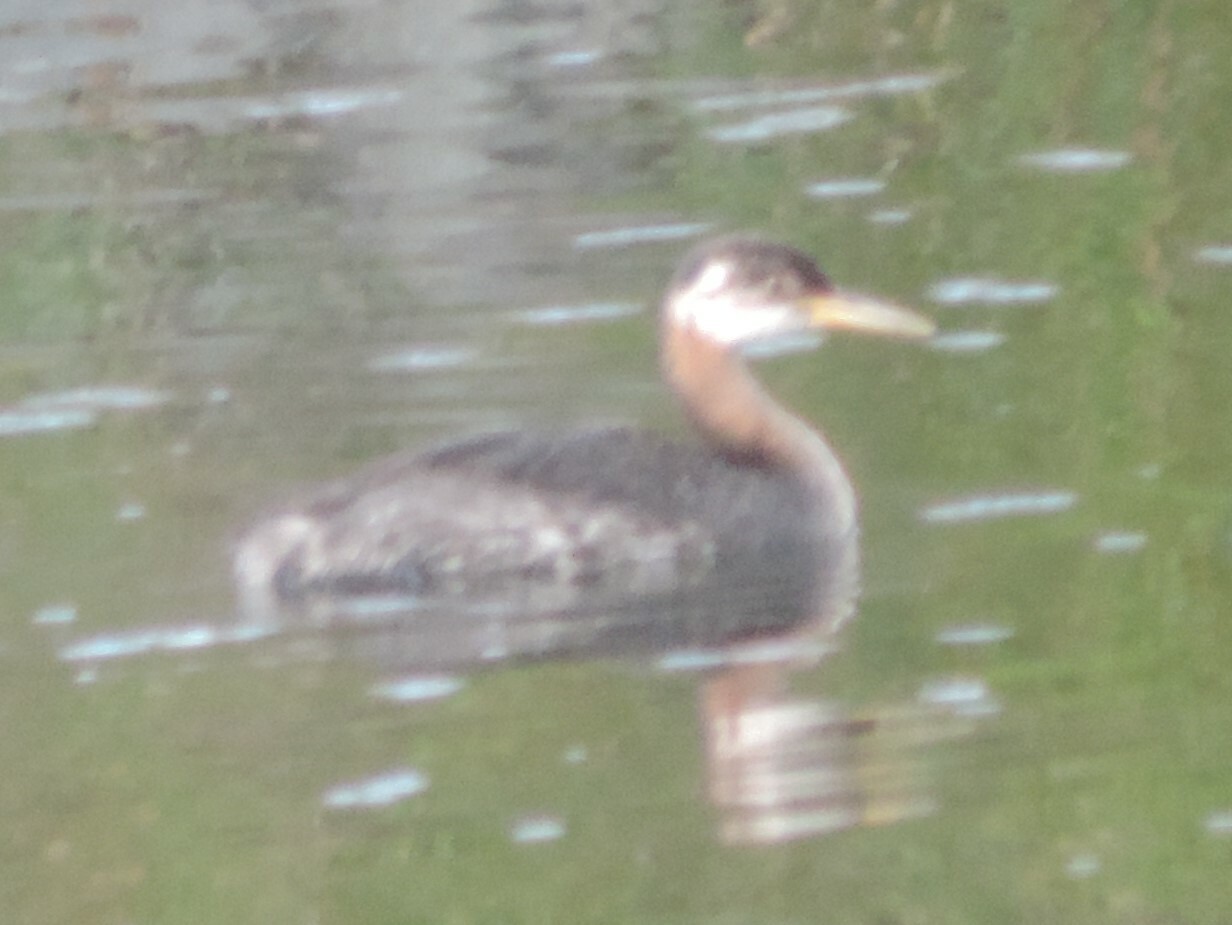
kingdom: Animalia
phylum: Chordata
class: Aves
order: Podicipediformes
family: Podicipedidae
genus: Podiceps
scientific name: Podiceps grisegena
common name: Red-necked grebe
